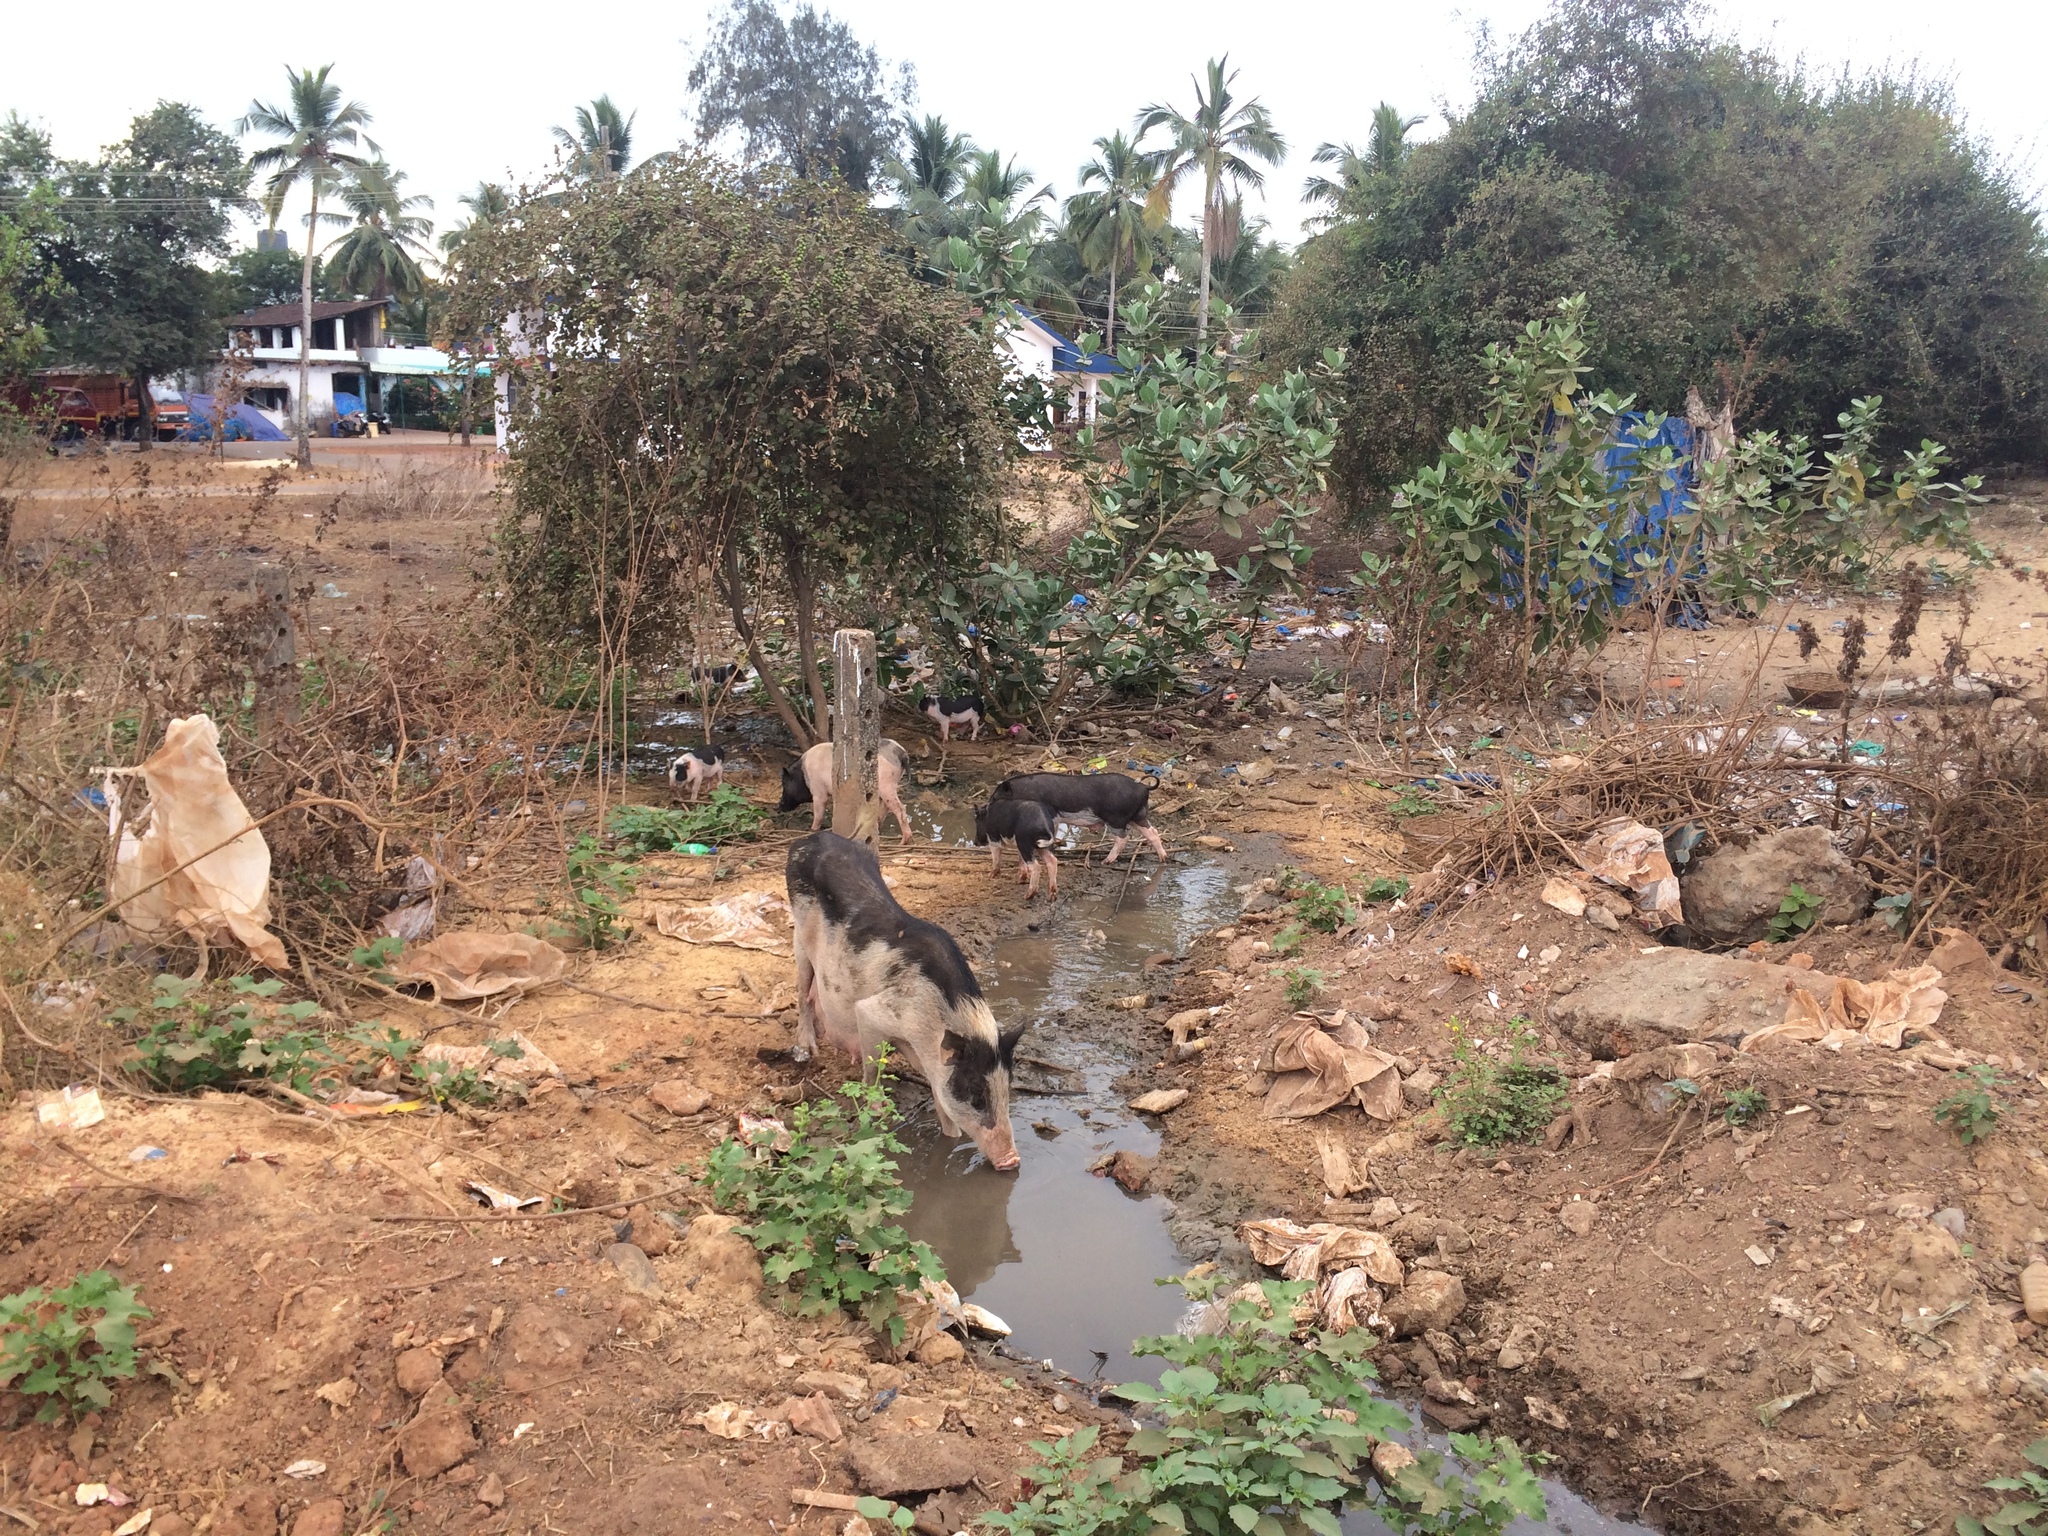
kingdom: Animalia
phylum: Chordata
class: Mammalia
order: Artiodactyla
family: Suidae
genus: Sus
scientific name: Sus scrofa
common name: Wild boar
